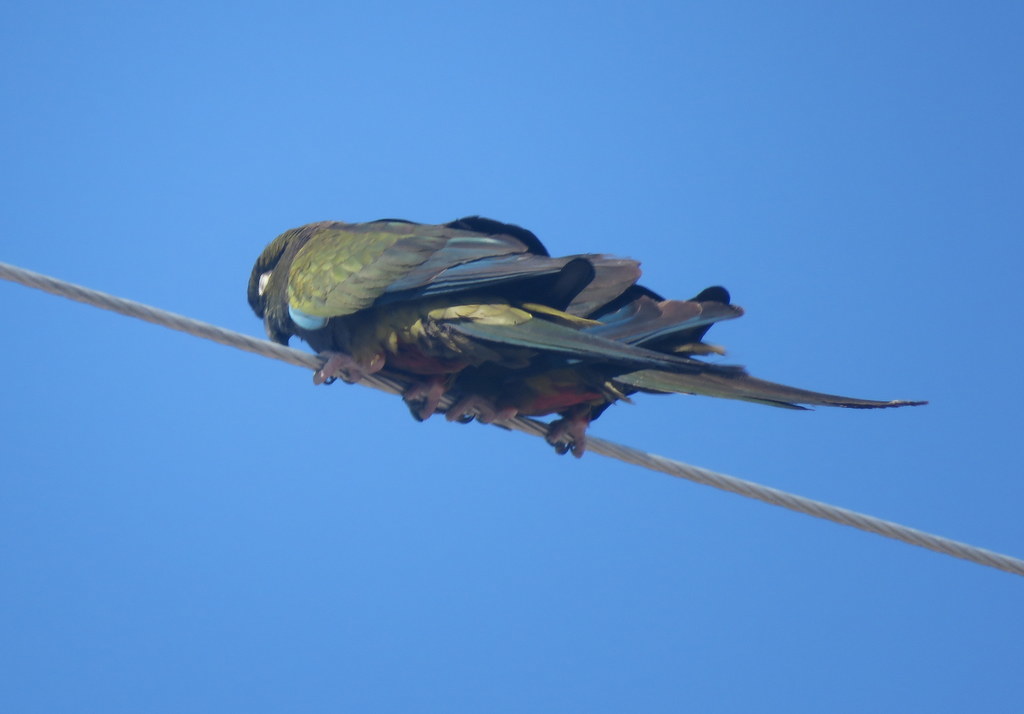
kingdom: Animalia
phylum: Chordata
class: Aves
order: Psittaciformes
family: Psittacidae
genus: Cyanoliseus
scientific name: Cyanoliseus patagonus
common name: Burrowing parrot
